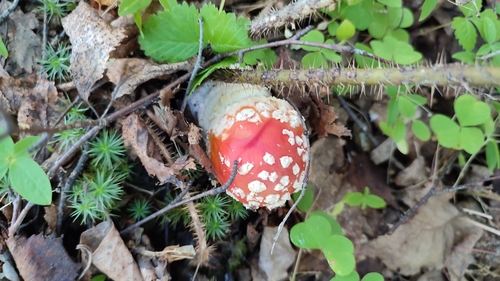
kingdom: Fungi
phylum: Basidiomycota
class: Agaricomycetes
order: Agaricales
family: Amanitaceae
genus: Amanita
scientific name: Amanita muscaria
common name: Fly agaric
